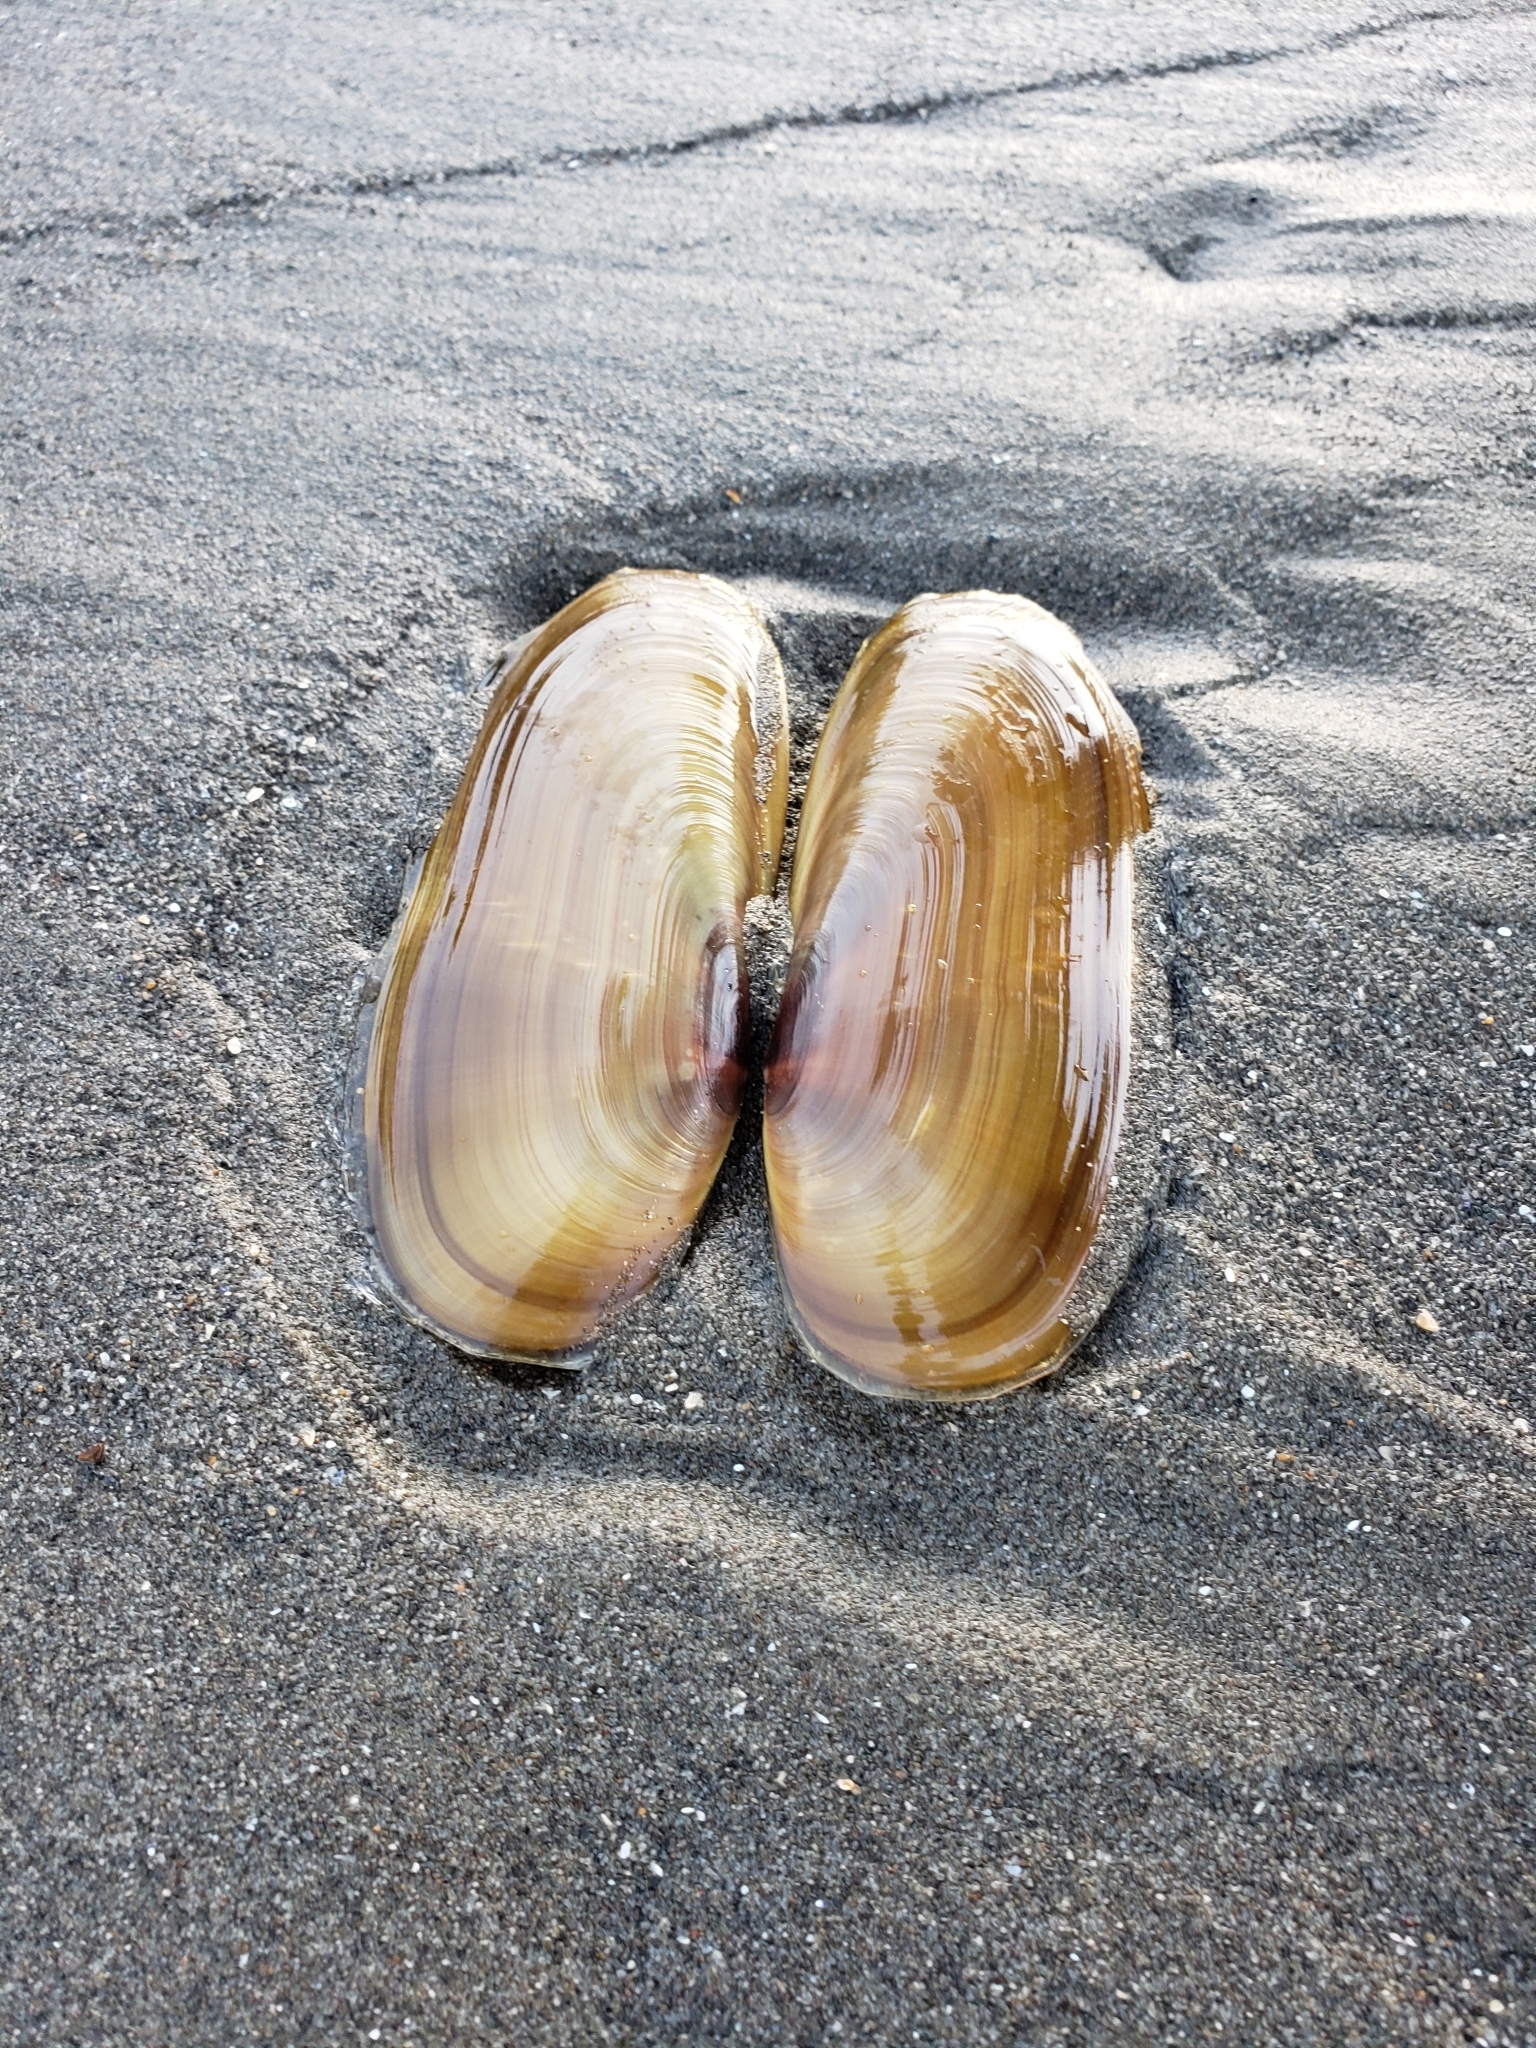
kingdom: Animalia
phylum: Mollusca
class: Bivalvia
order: Adapedonta
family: Pharidae
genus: Siliqua
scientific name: Siliqua patula
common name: Pacific razor clam
